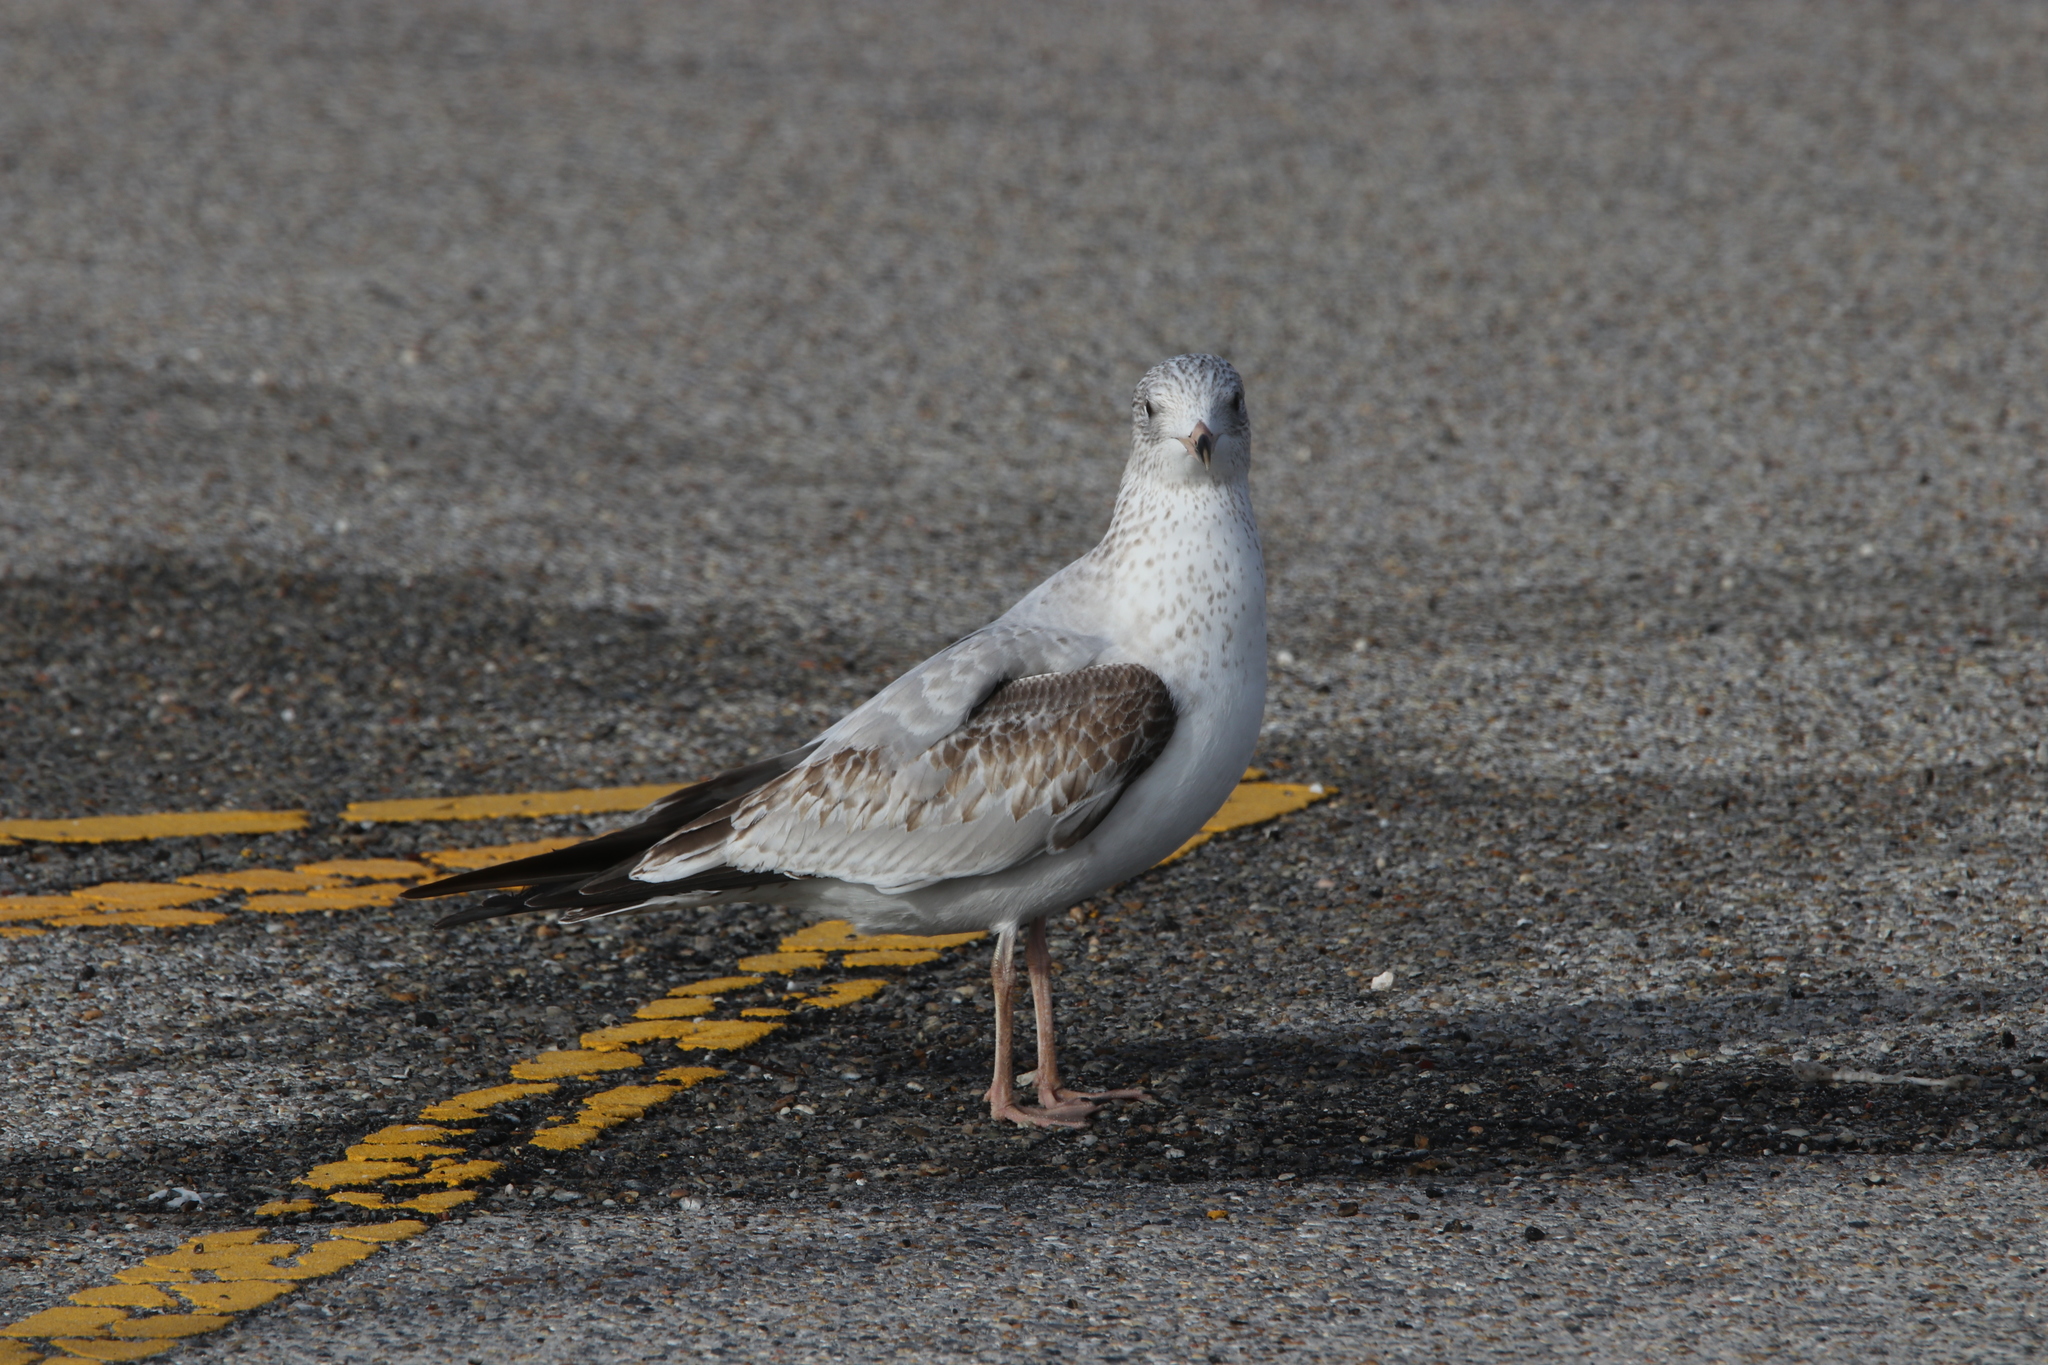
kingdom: Animalia
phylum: Chordata
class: Aves
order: Charadriiformes
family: Laridae
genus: Larus
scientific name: Larus delawarensis
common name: Ring-billed gull
